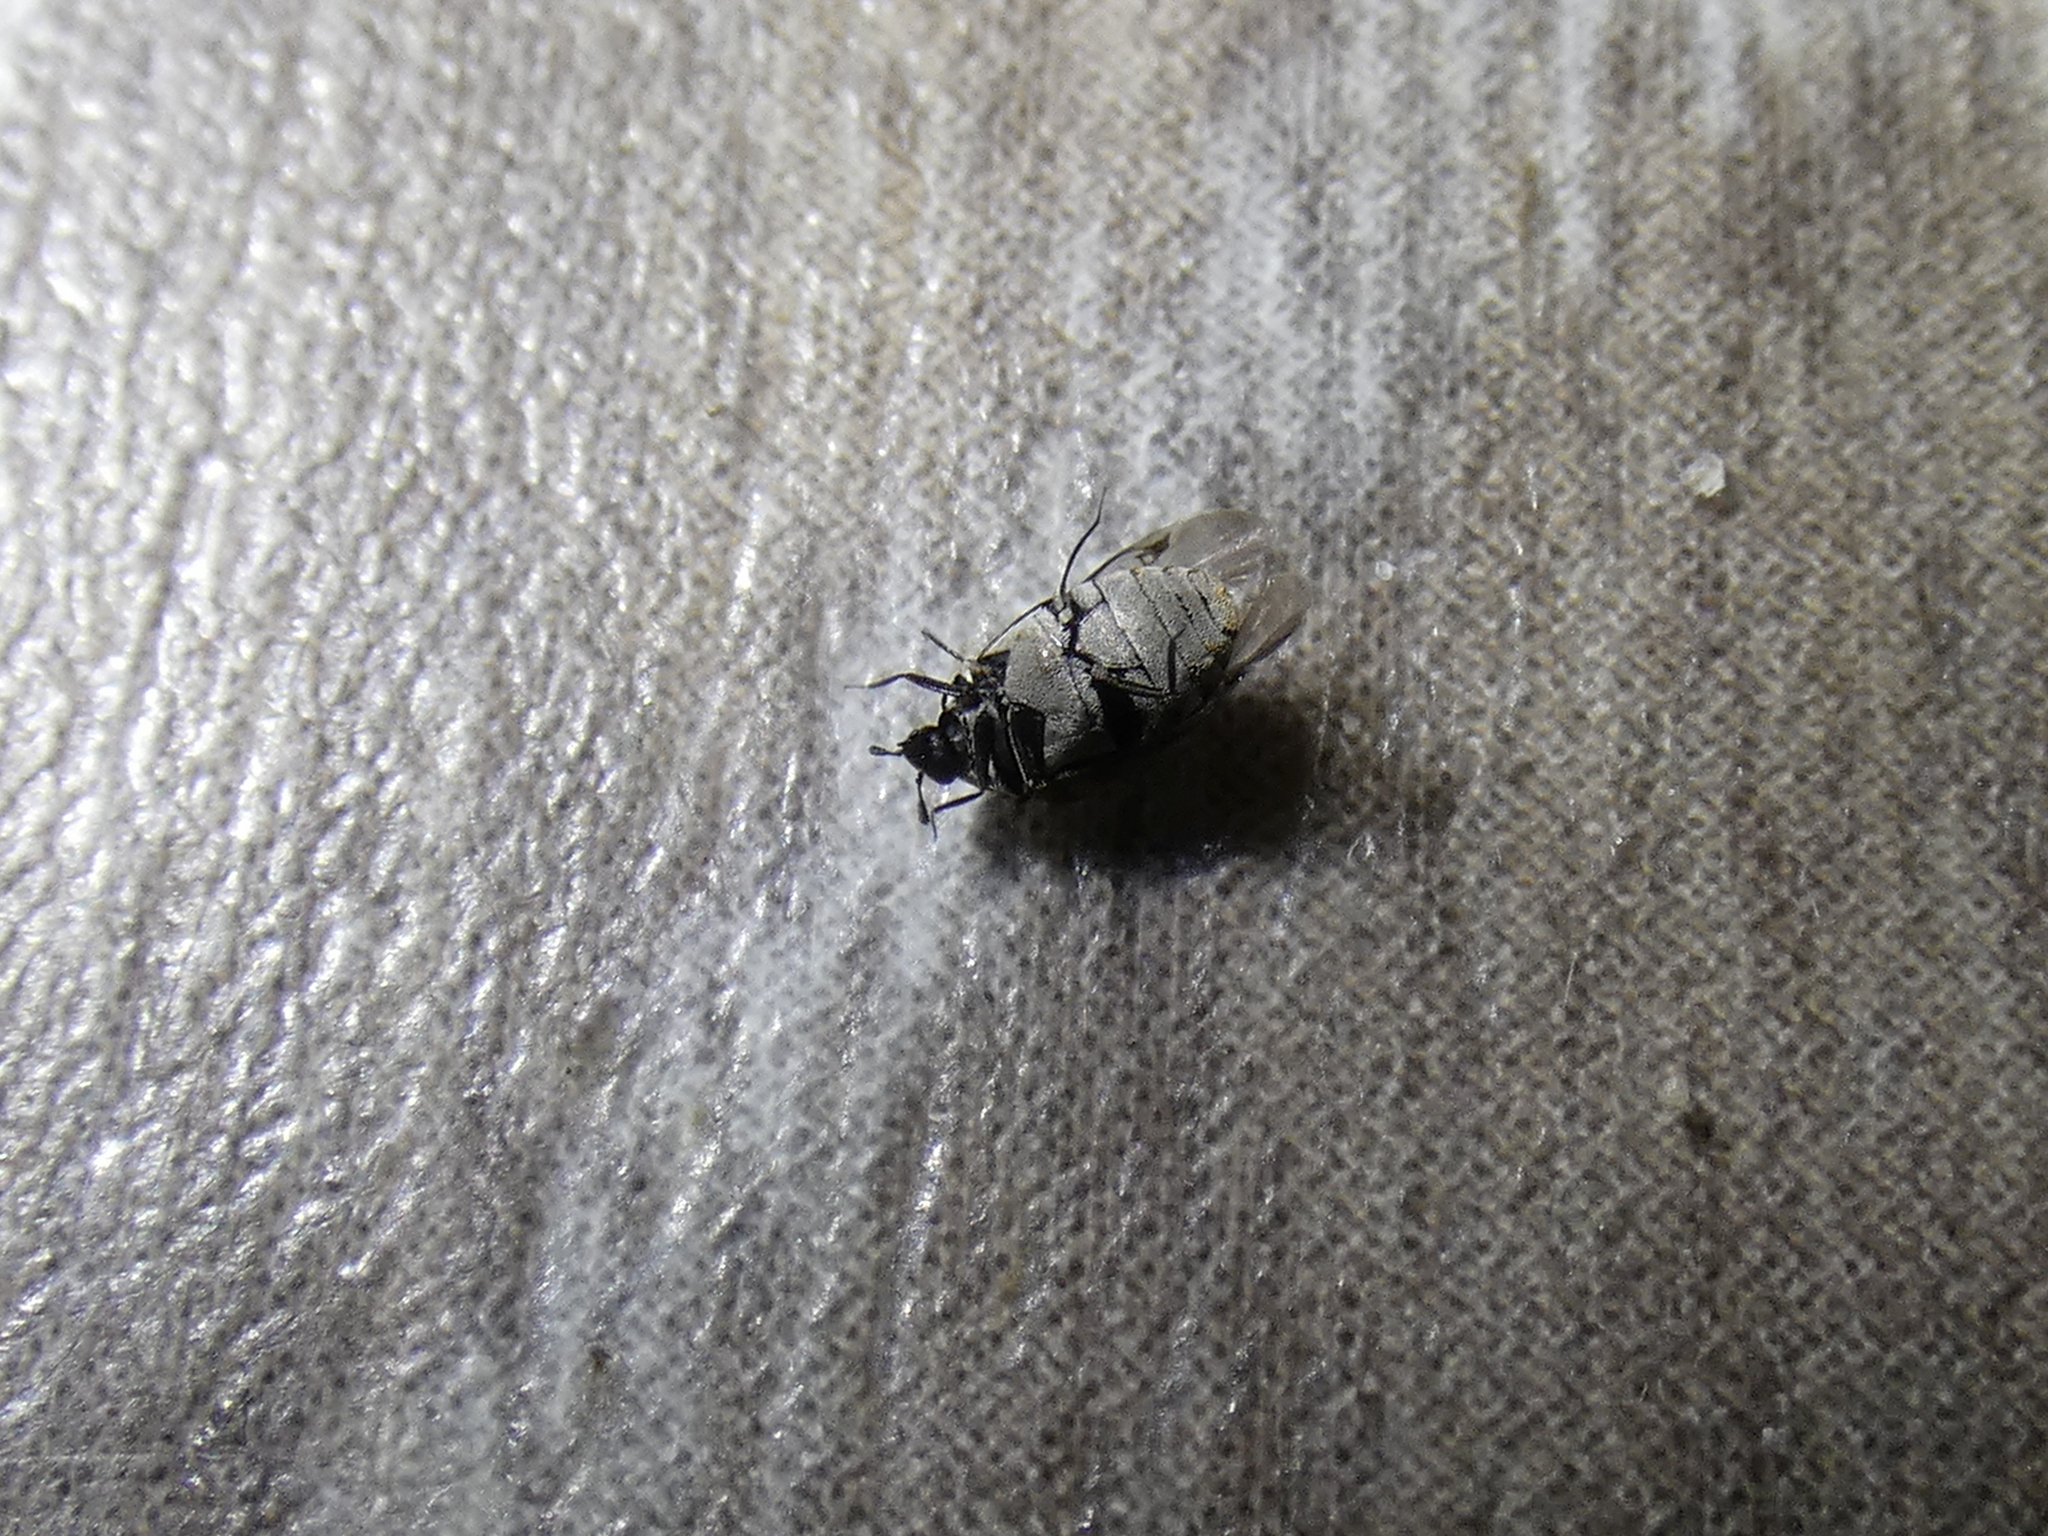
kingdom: Animalia
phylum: Arthropoda
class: Insecta
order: Coleoptera
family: Dermestidae
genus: Anthrenus
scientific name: Anthrenus verbasci
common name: Varied carpet beetle
